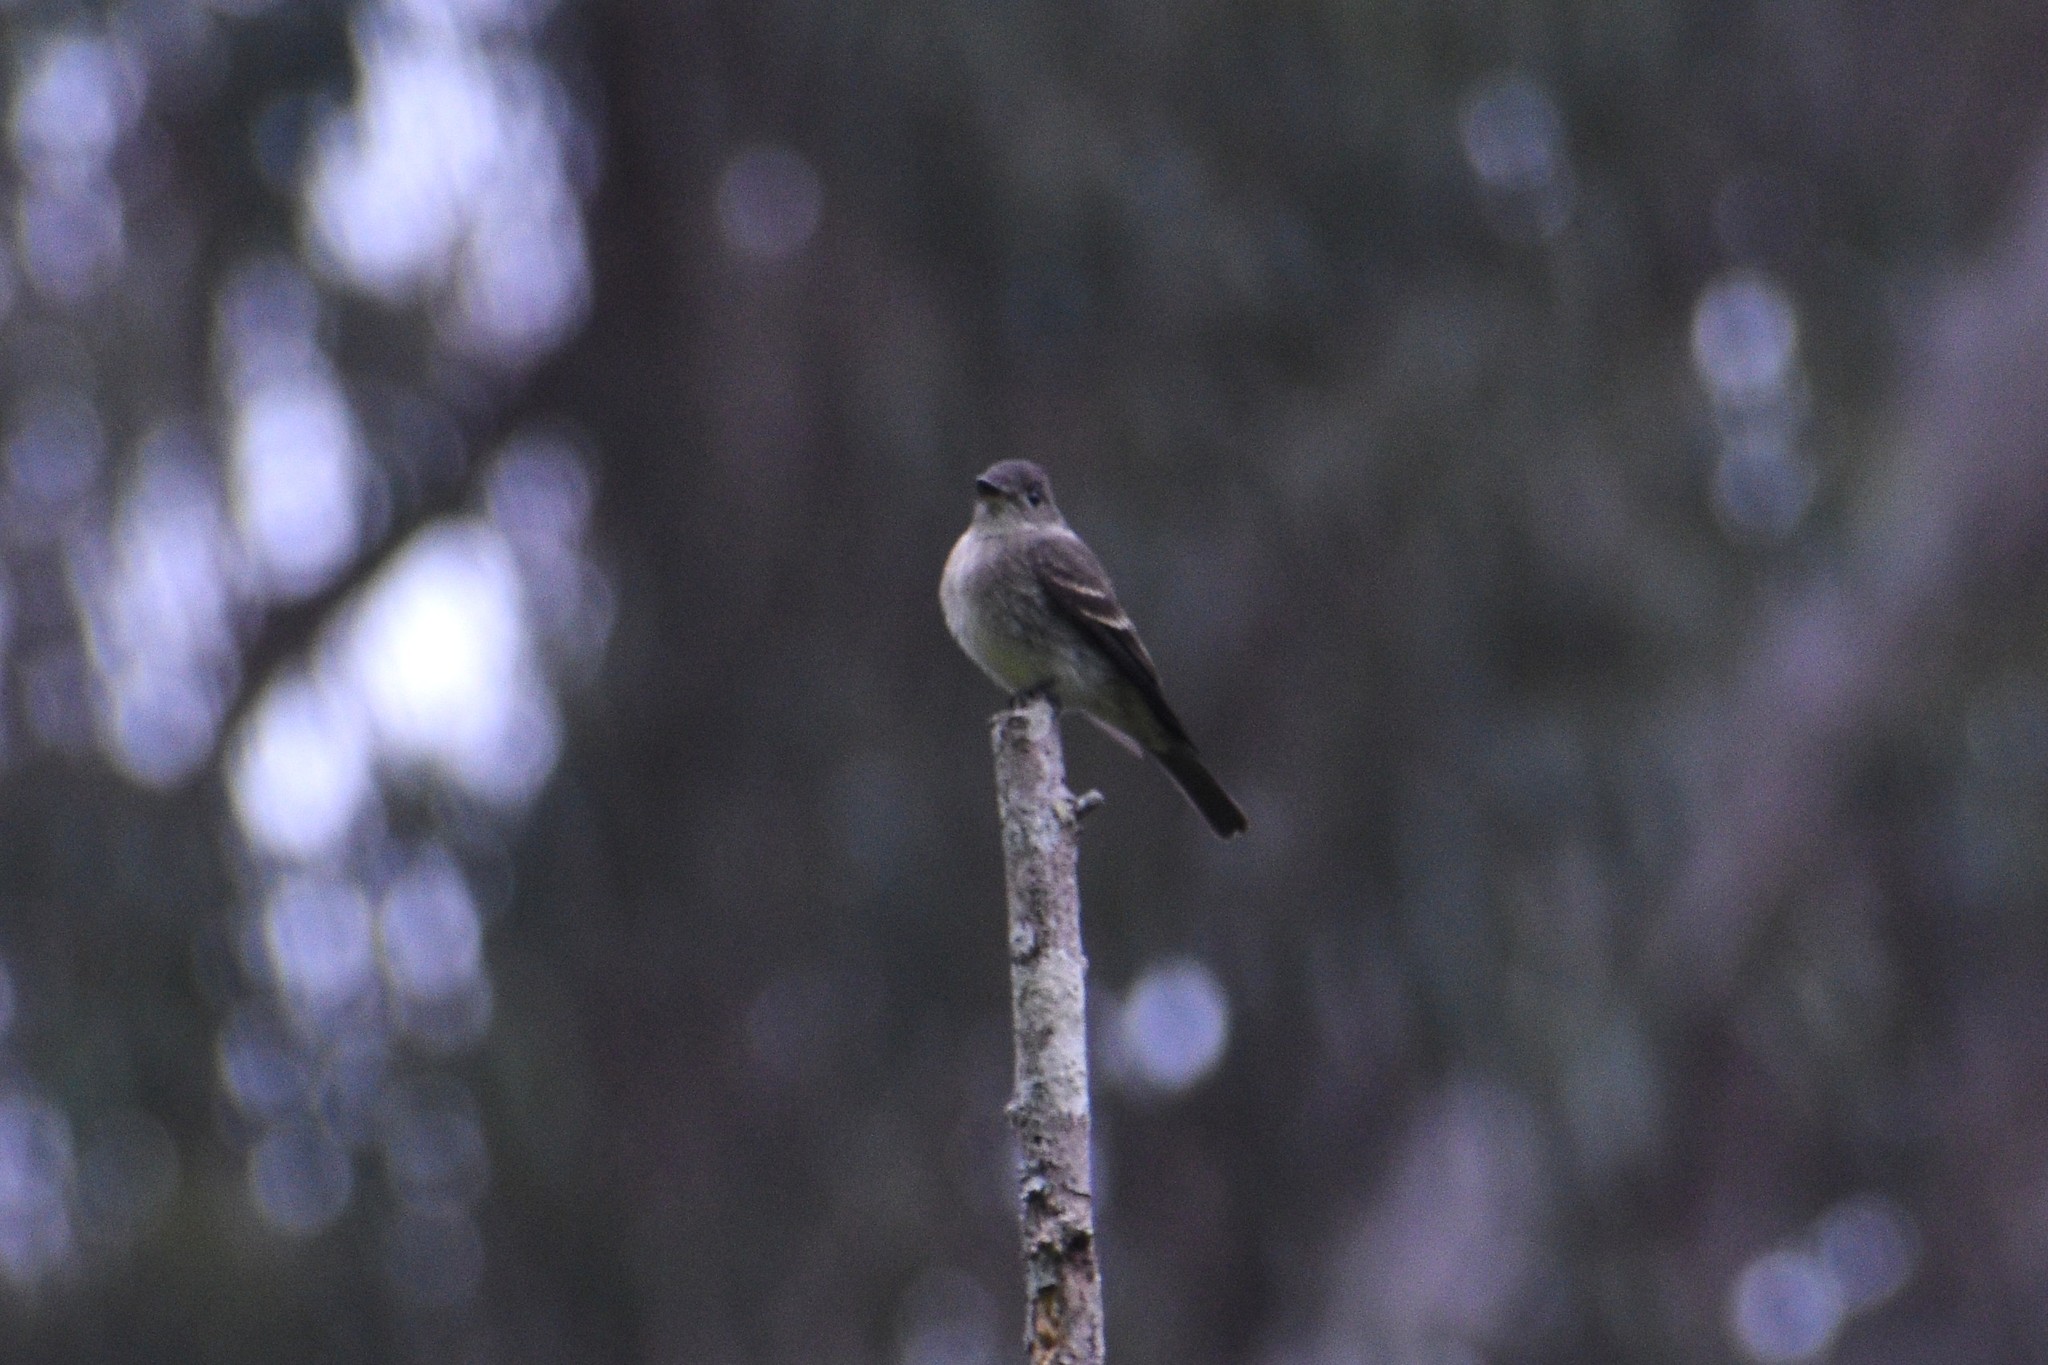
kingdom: Animalia
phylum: Chordata
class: Aves
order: Passeriformes
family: Tyrannidae
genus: Contopus
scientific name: Contopus sordidulus
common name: Western wood-pewee
